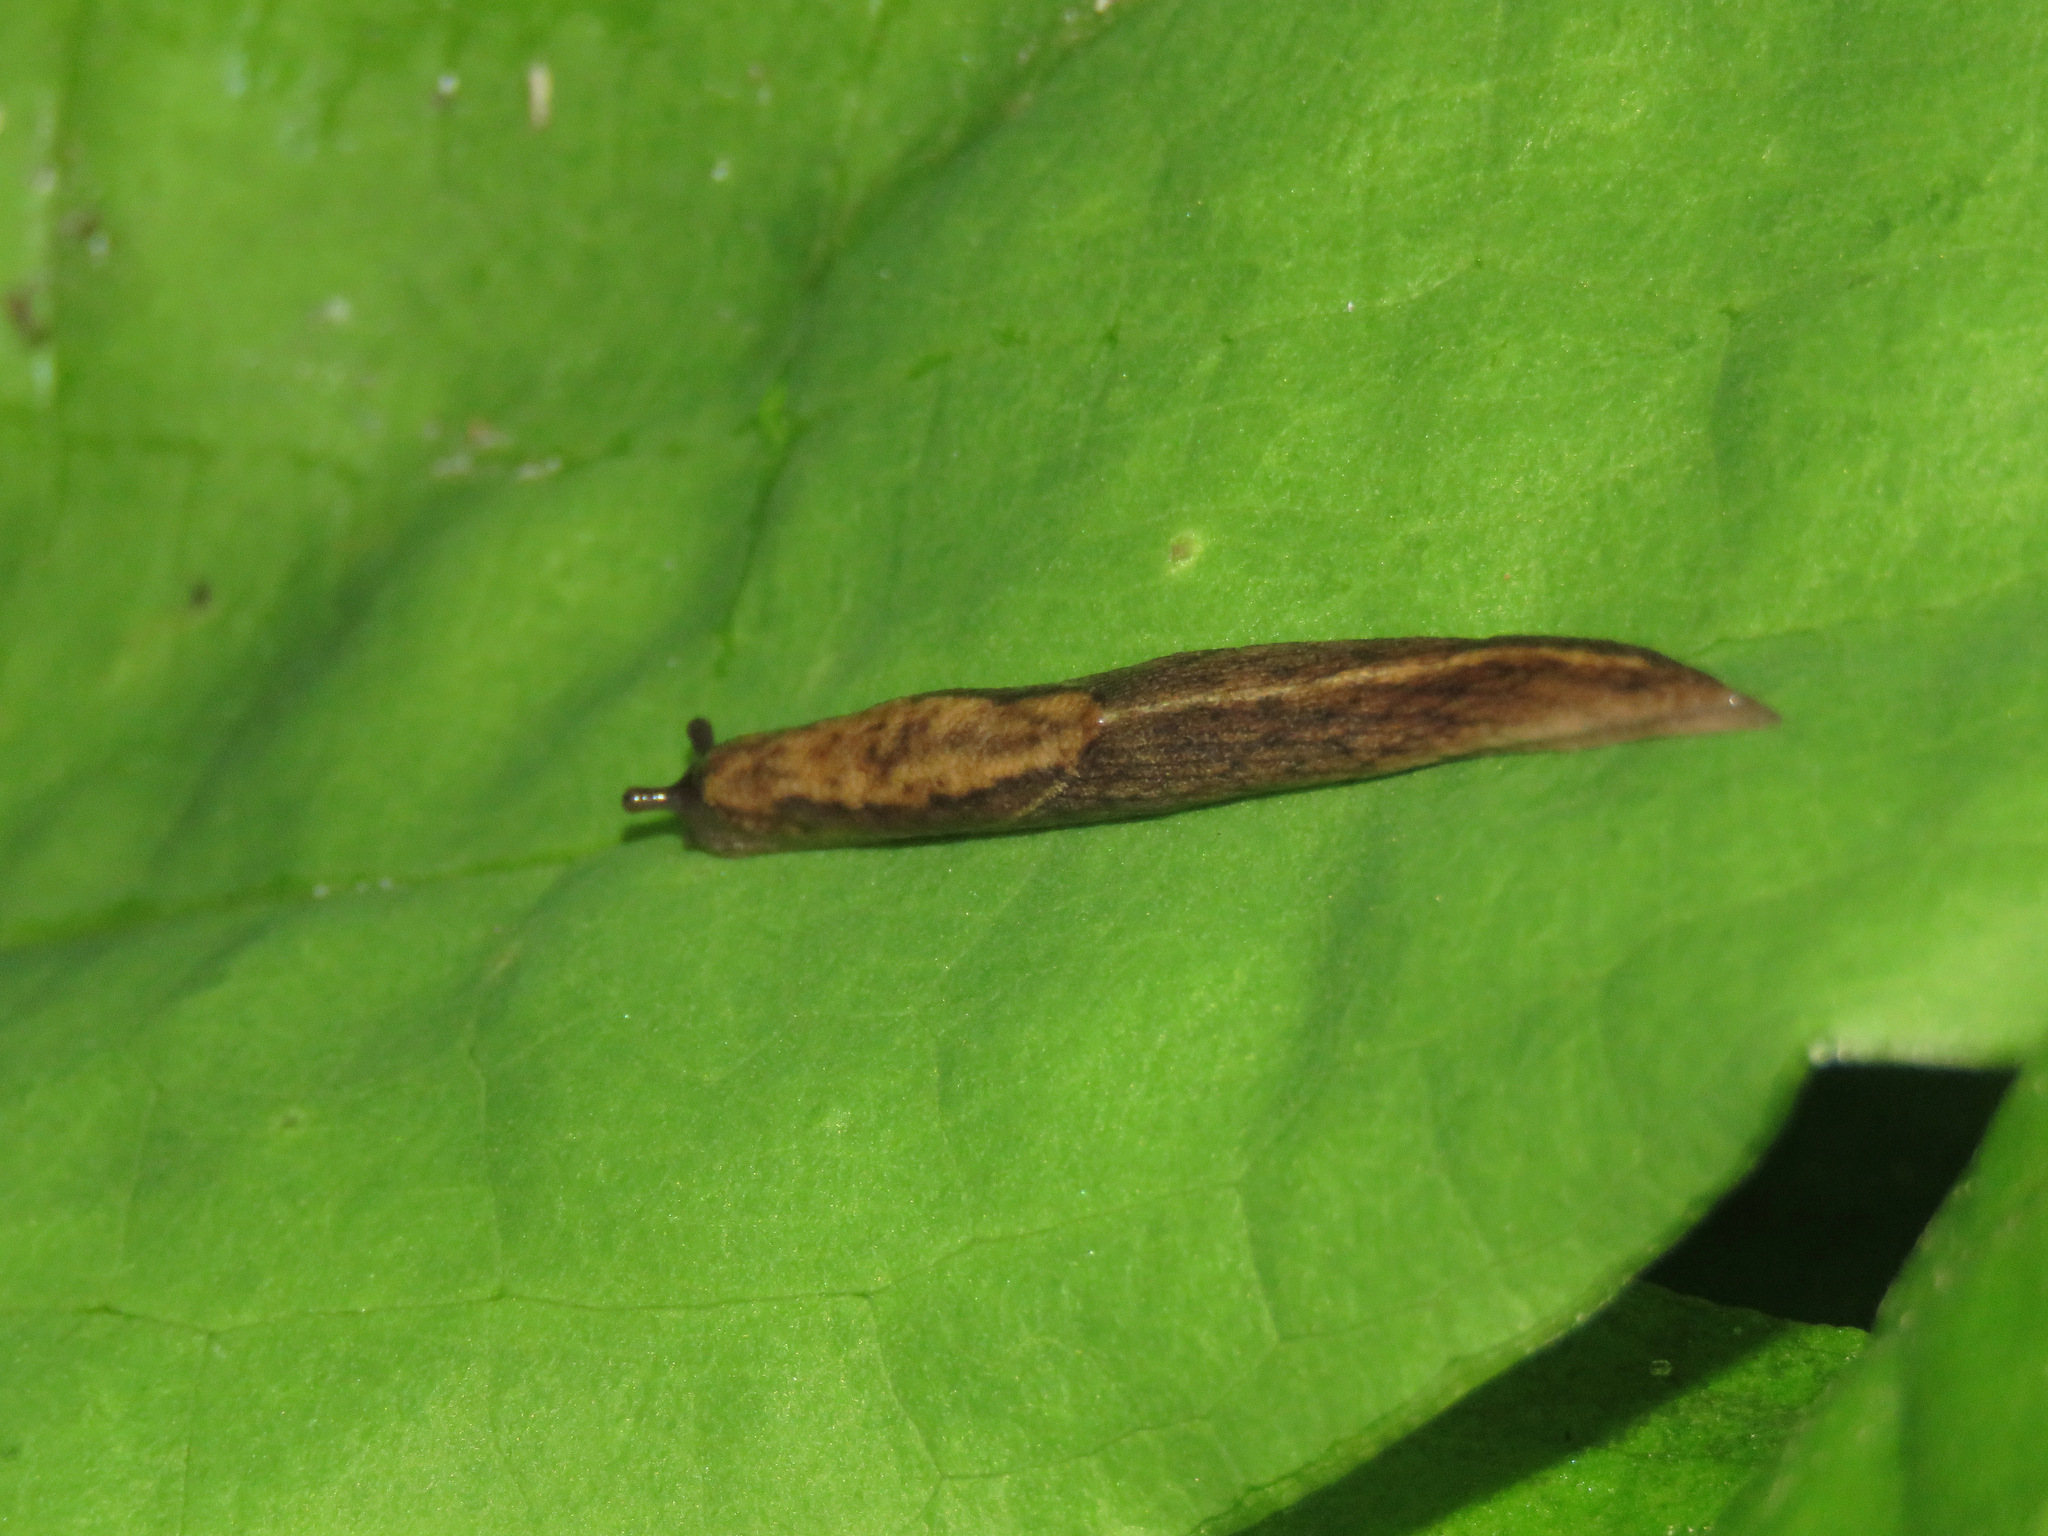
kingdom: Animalia
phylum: Mollusca
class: Gastropoda
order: Stylommatophora
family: Ariolimacidae
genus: Prophysaon
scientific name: Prophysaon andersonii
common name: Reticulate taildropper
